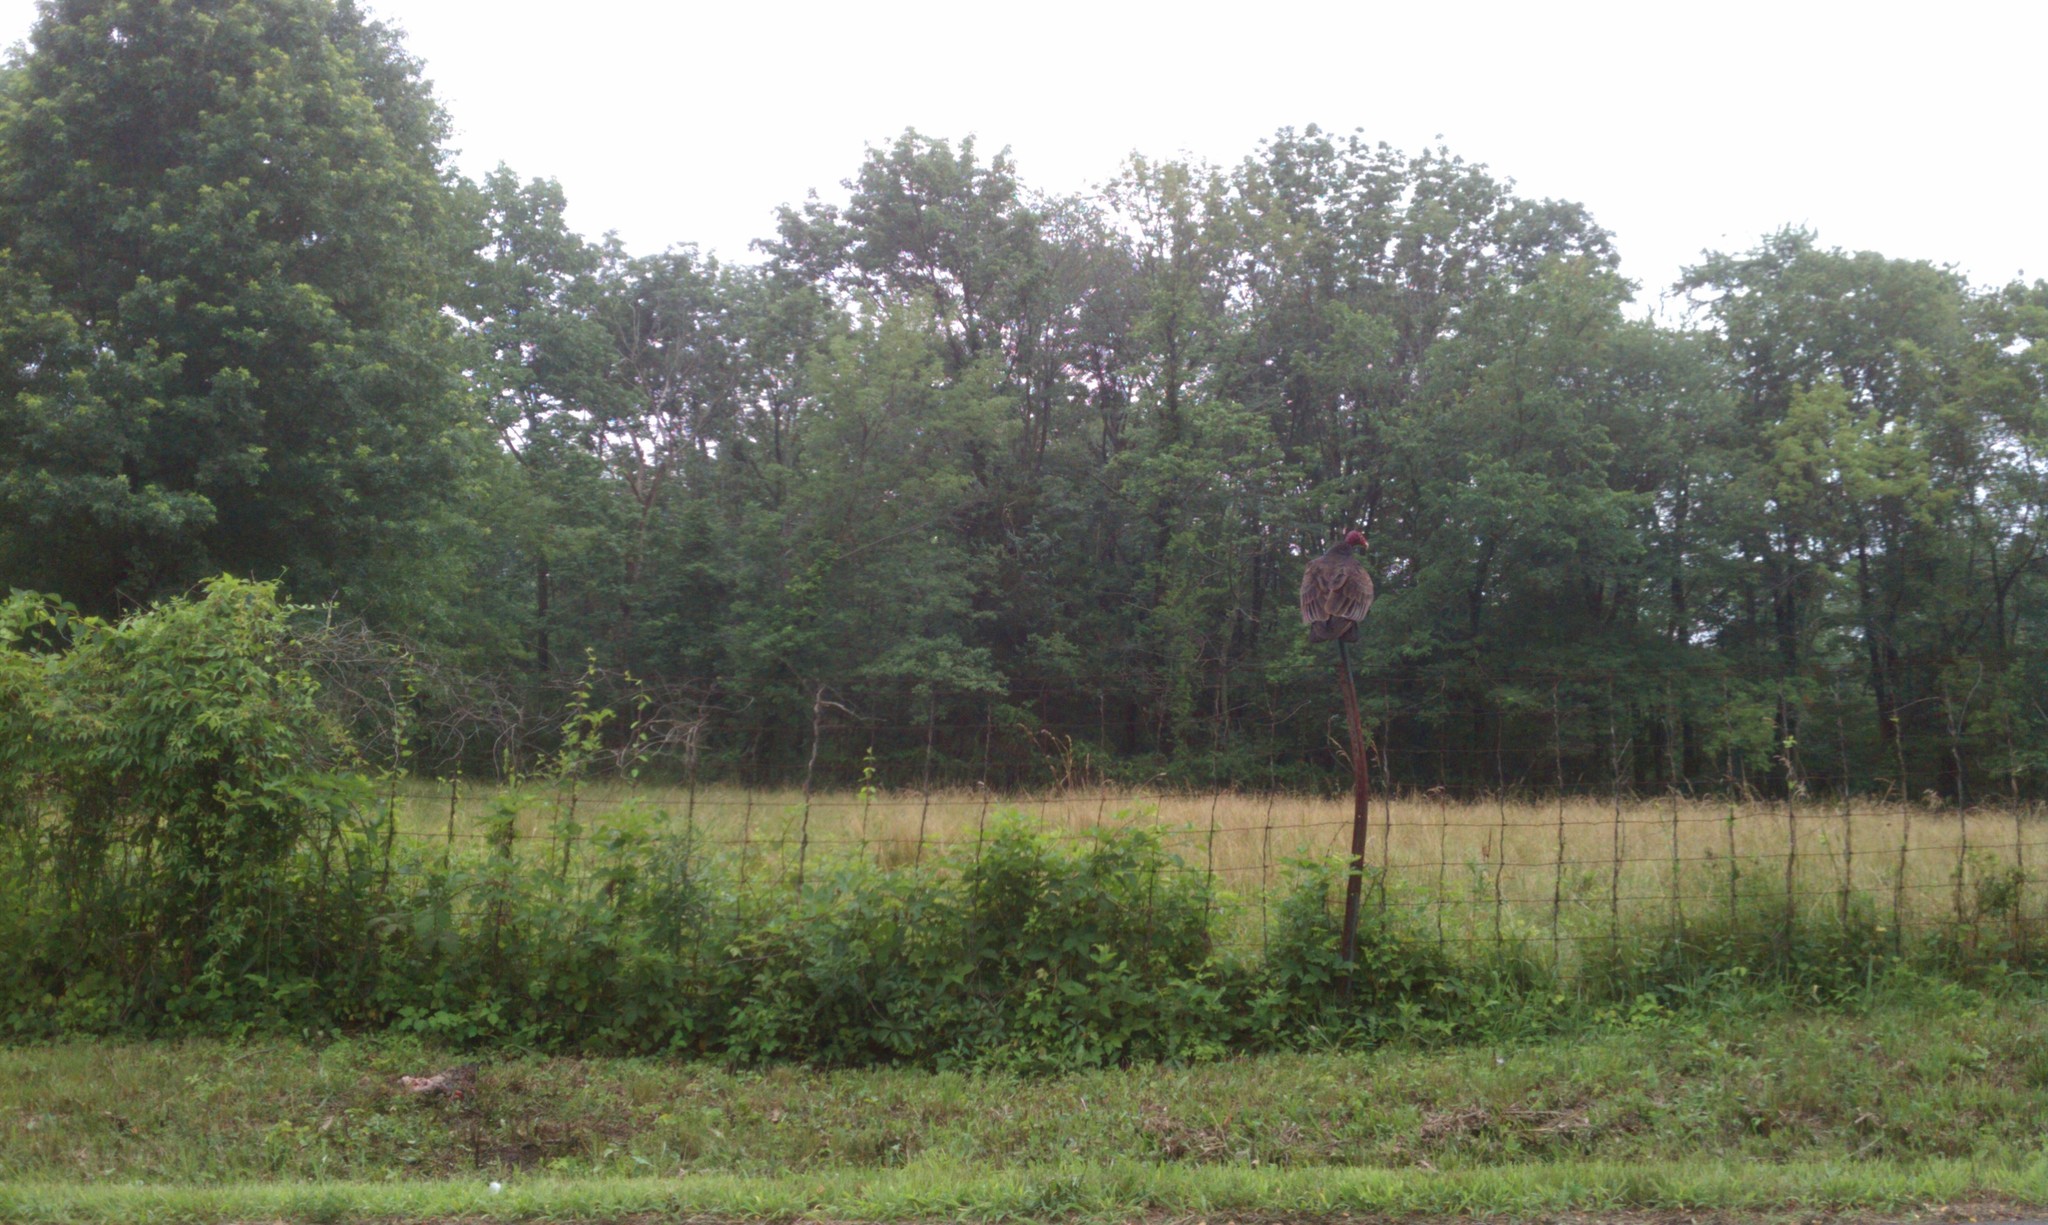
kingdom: Animalia
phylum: Chordata
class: Aves
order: Accipitriformes
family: Cathartidae
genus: Cathartes
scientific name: Cathartes aura
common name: Turkey vulture
